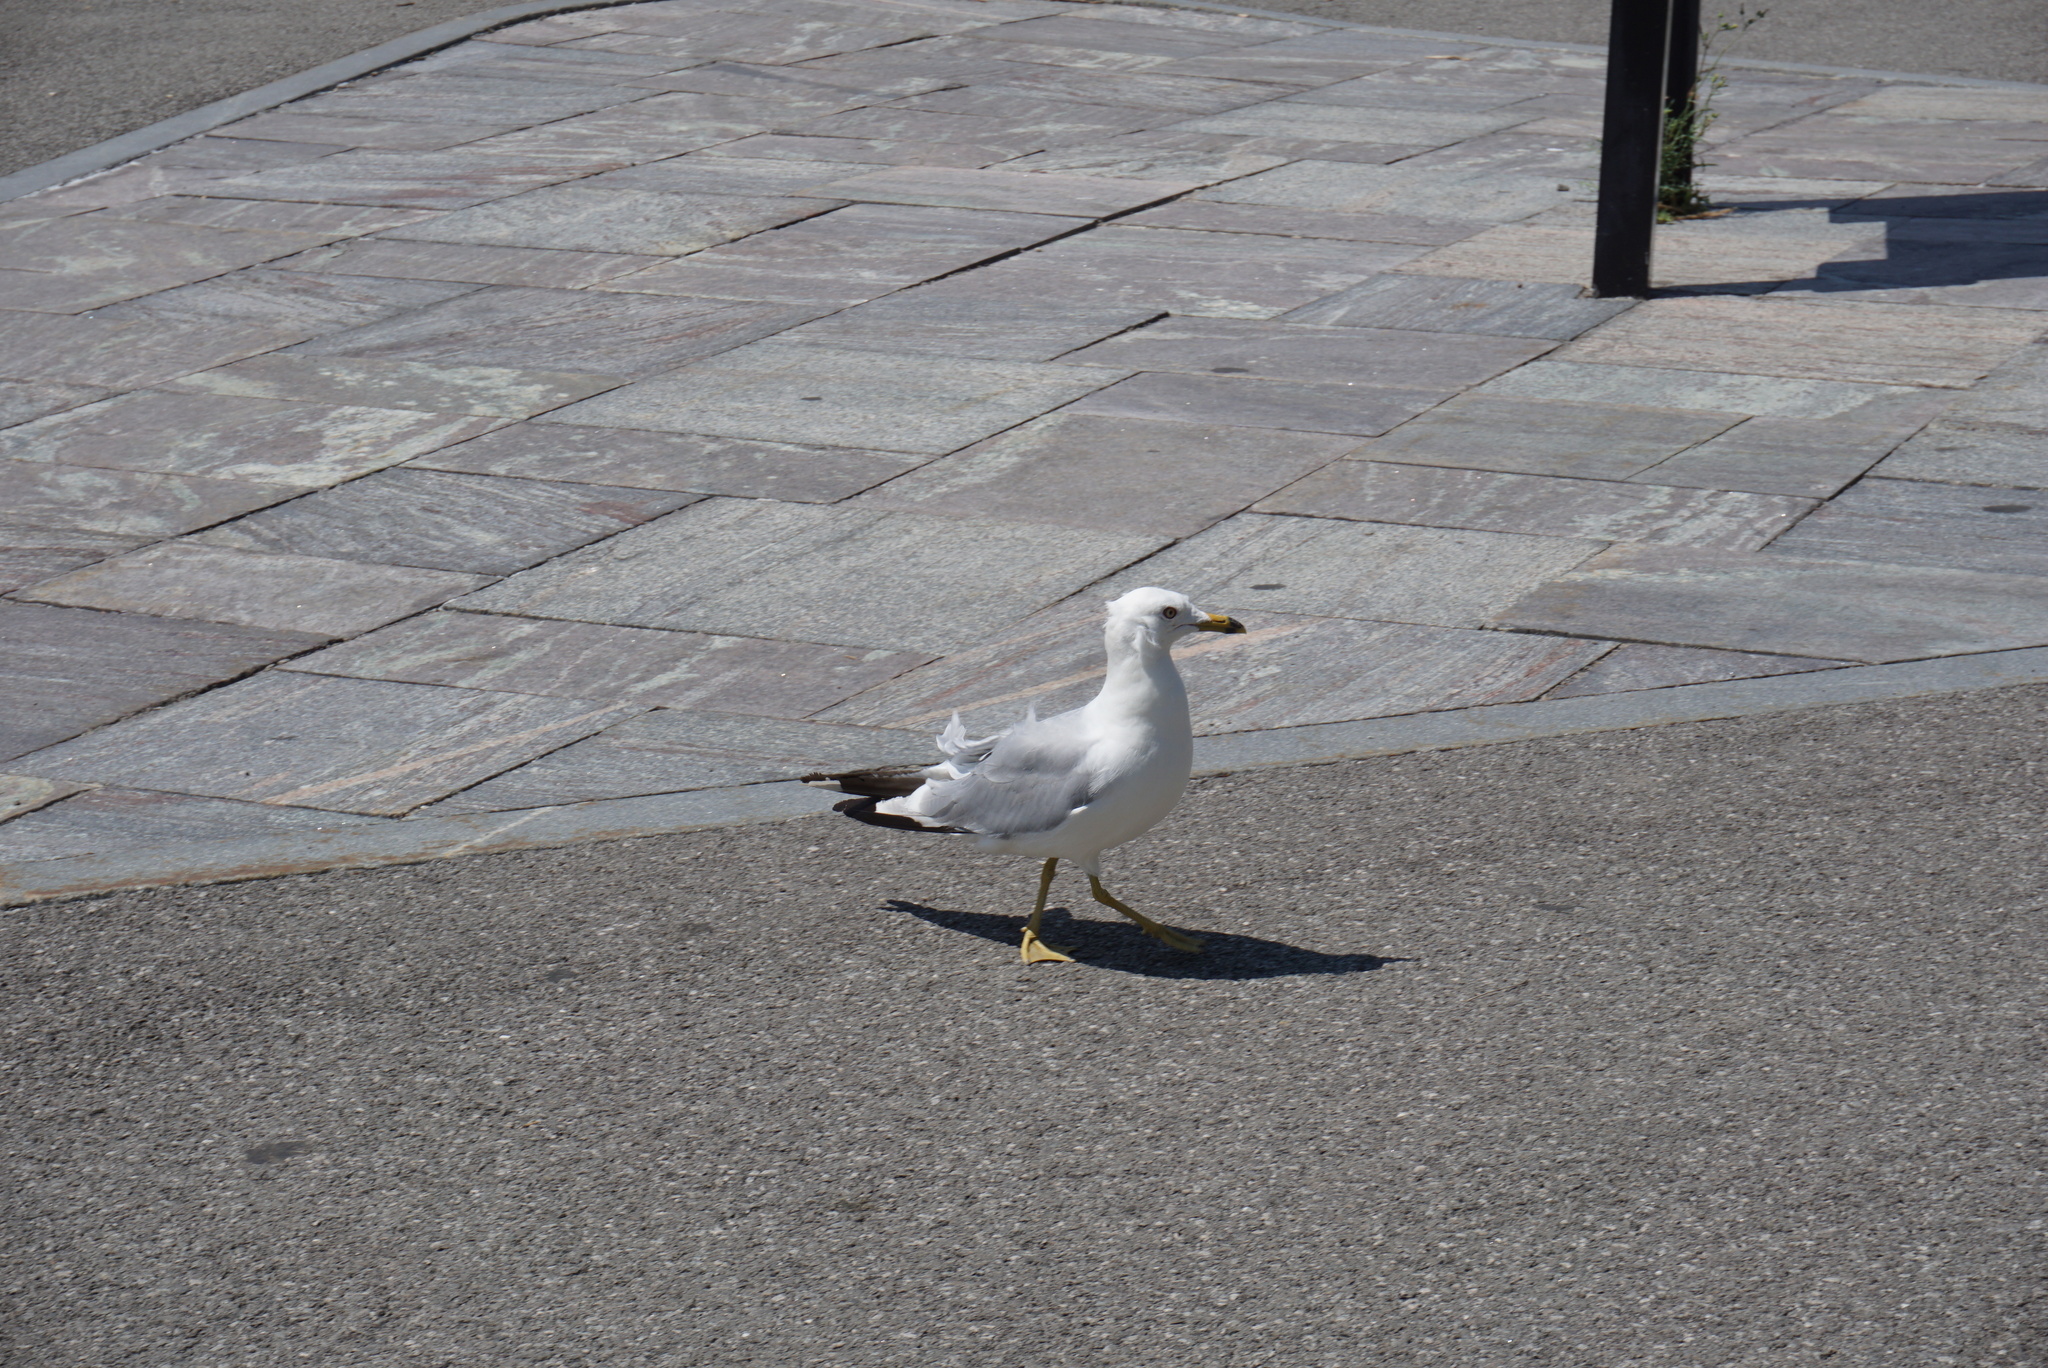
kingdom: Animalia
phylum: Chordata
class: Aves
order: Charadriiformes
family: Laridae
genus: Larus
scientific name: Larus delawarensis
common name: Ring-billed gull
